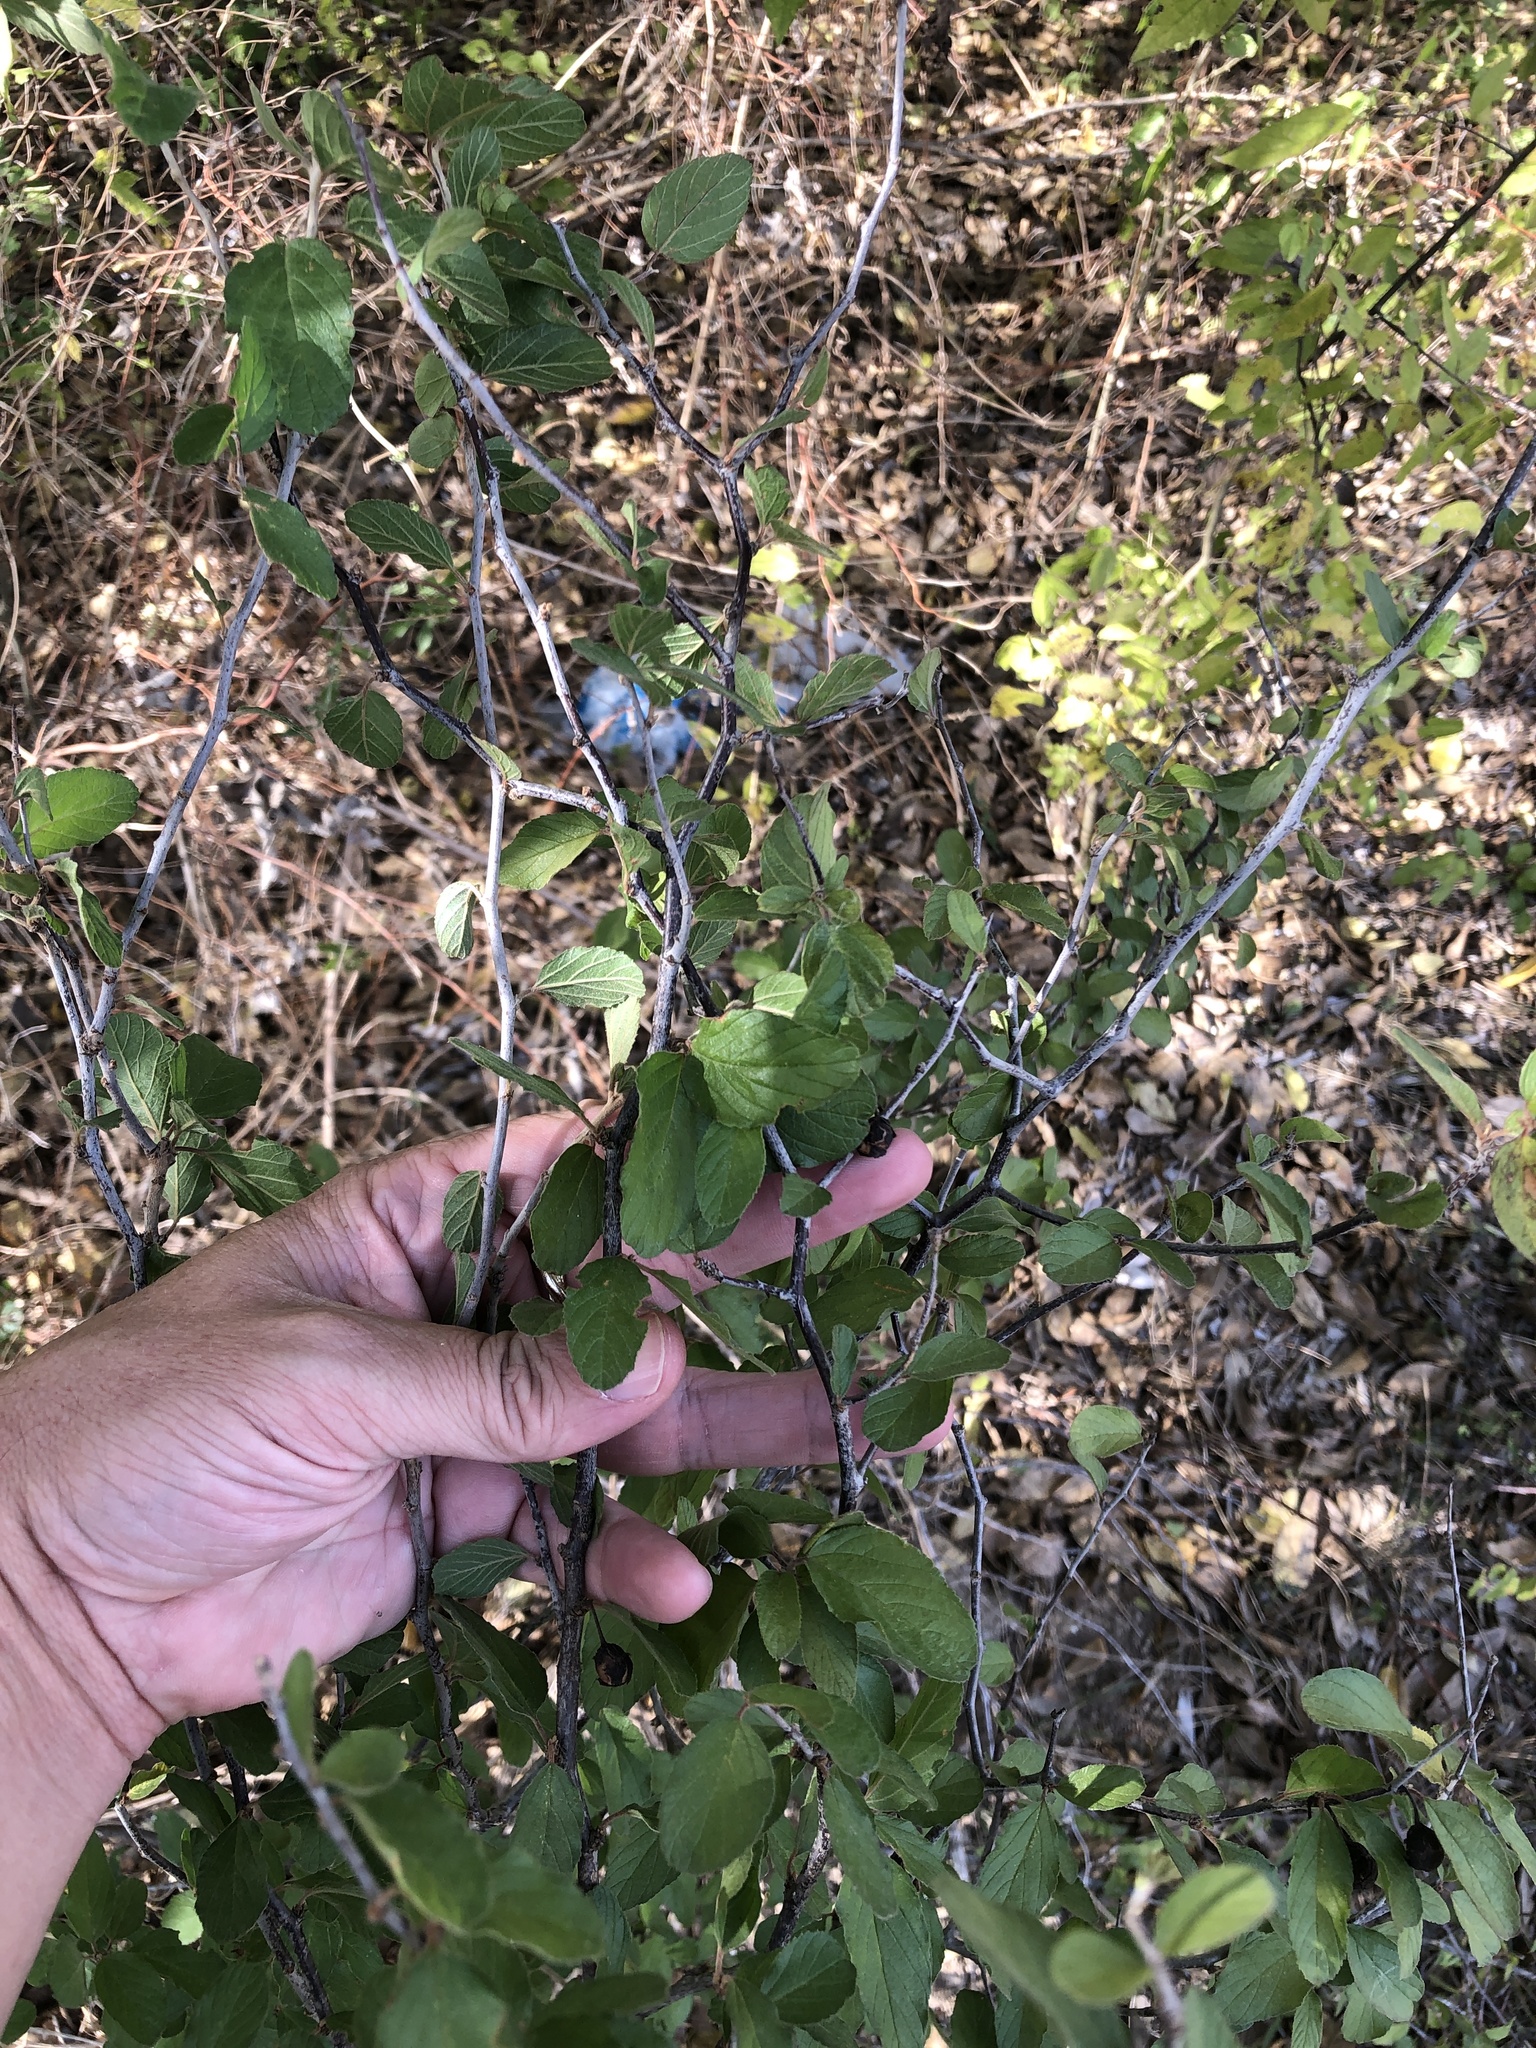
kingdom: Plantae
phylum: Tracheophyta
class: Magnoliopsida
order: Rosales
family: Rhamnaceae
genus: Colubrina
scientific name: Colubrina texensis
